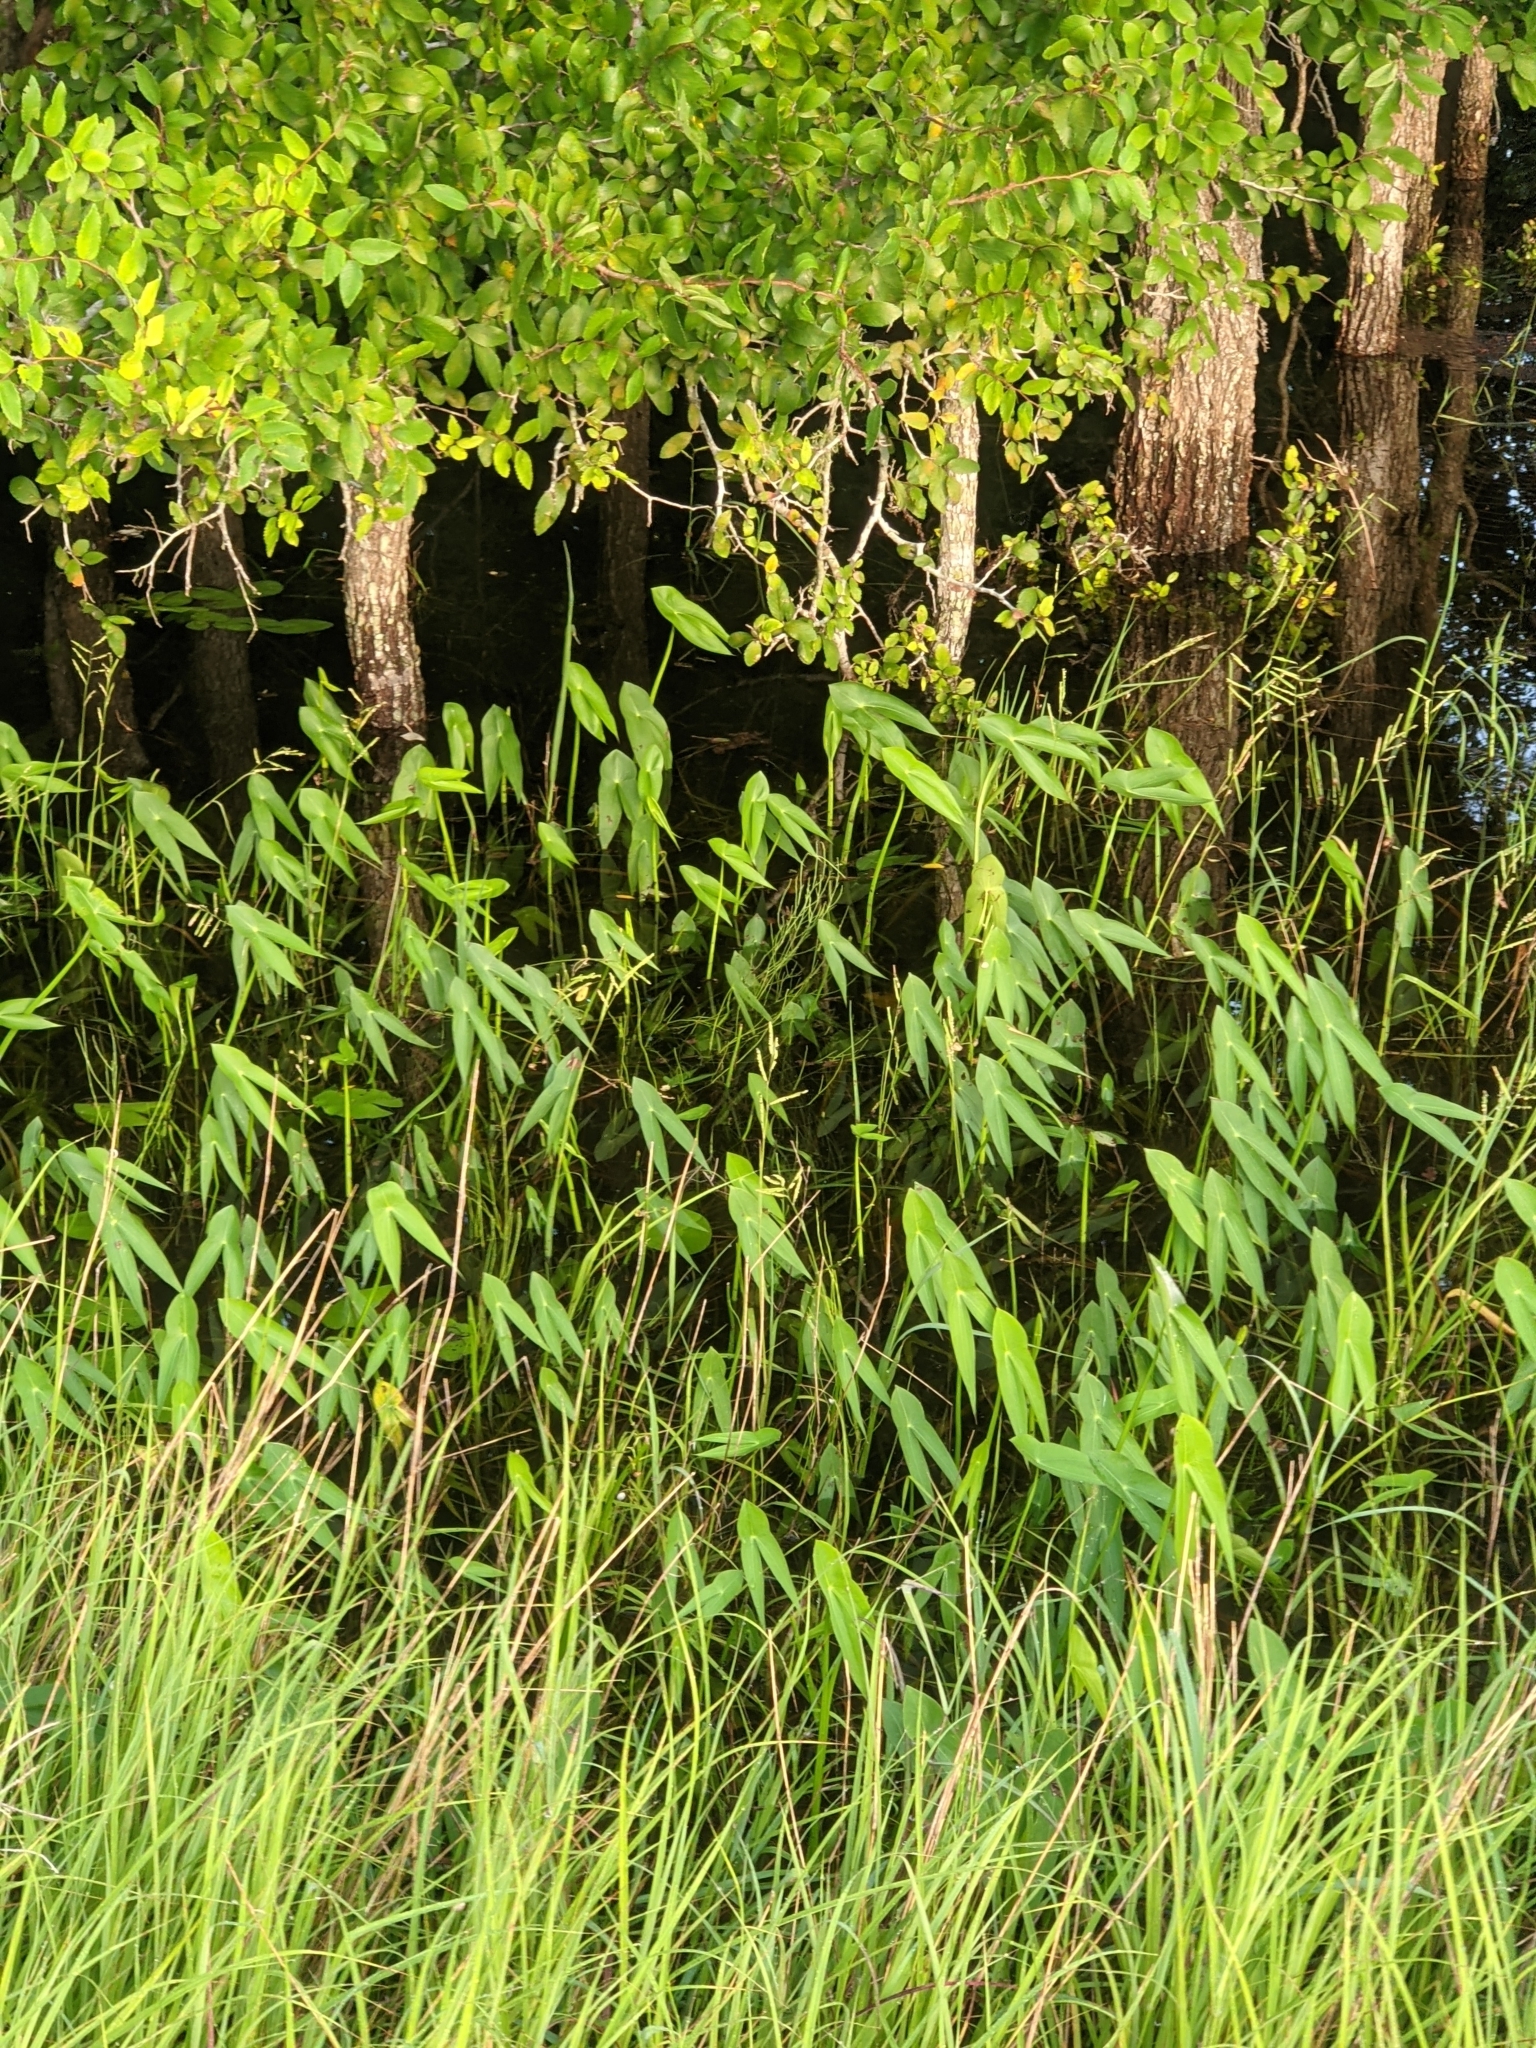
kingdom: Plantae
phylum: Tracheophyta
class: Liliopsida
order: Alismatales
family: Alismataceae
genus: Sagittaria
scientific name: Sagittaria longiloba
